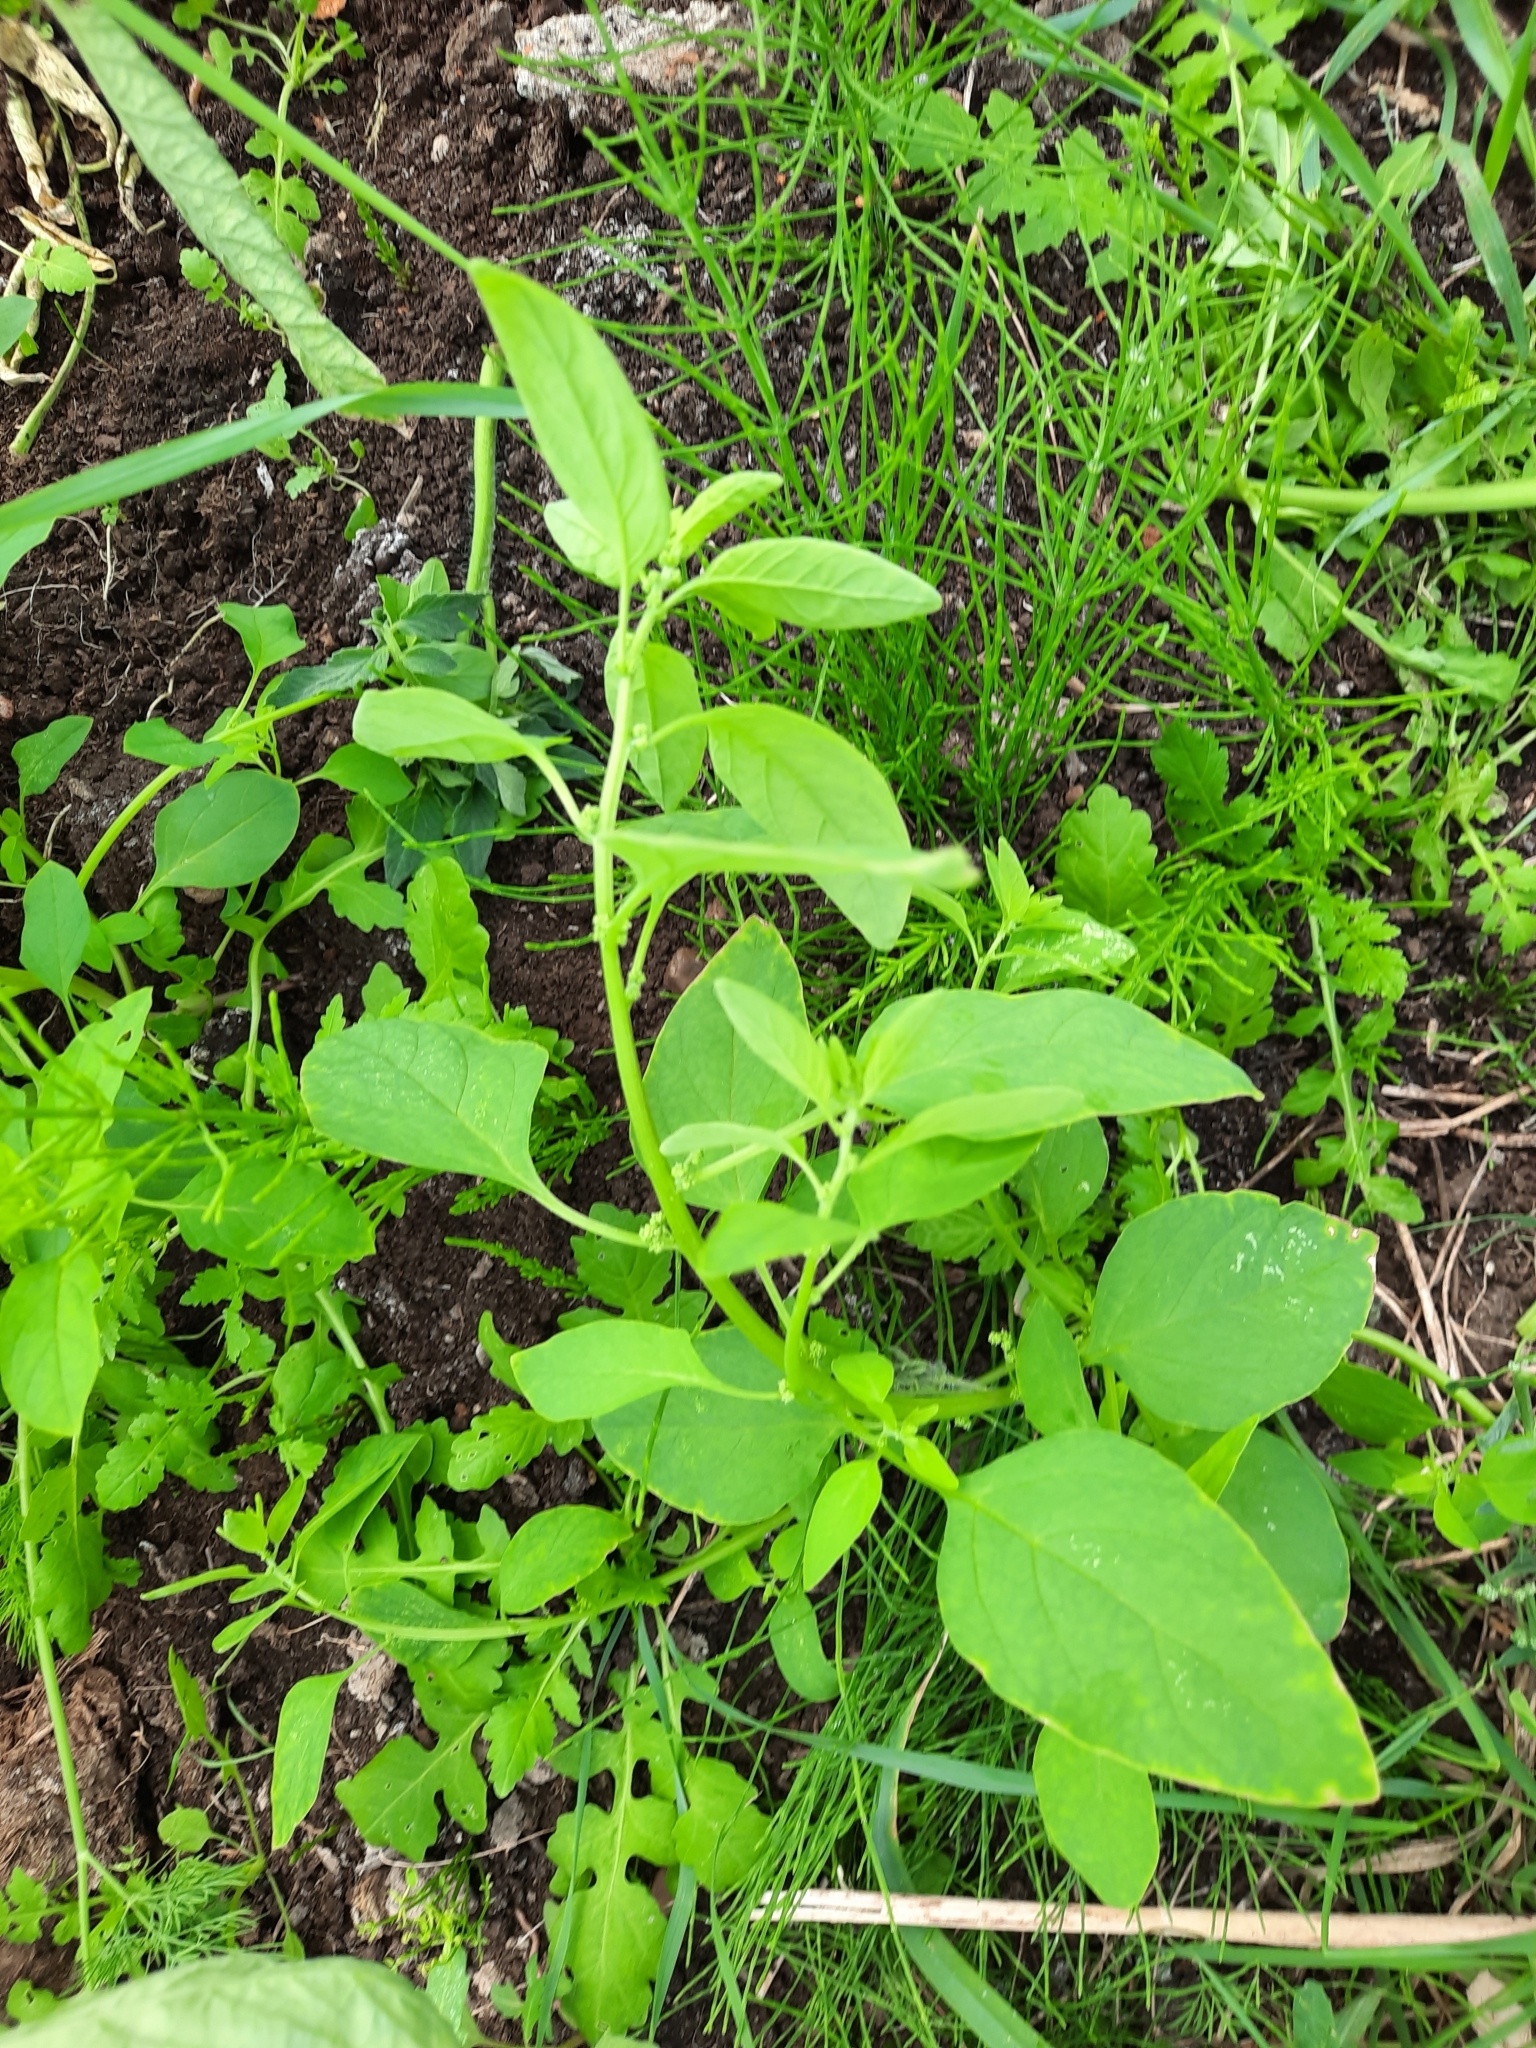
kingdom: Plantae
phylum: Tracheophyta
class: Magnoliopsida
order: Caryophyllales
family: Amaranthaceae
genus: Lipandra
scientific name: Lipandra polysperma
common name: Many-seed goosefoot
